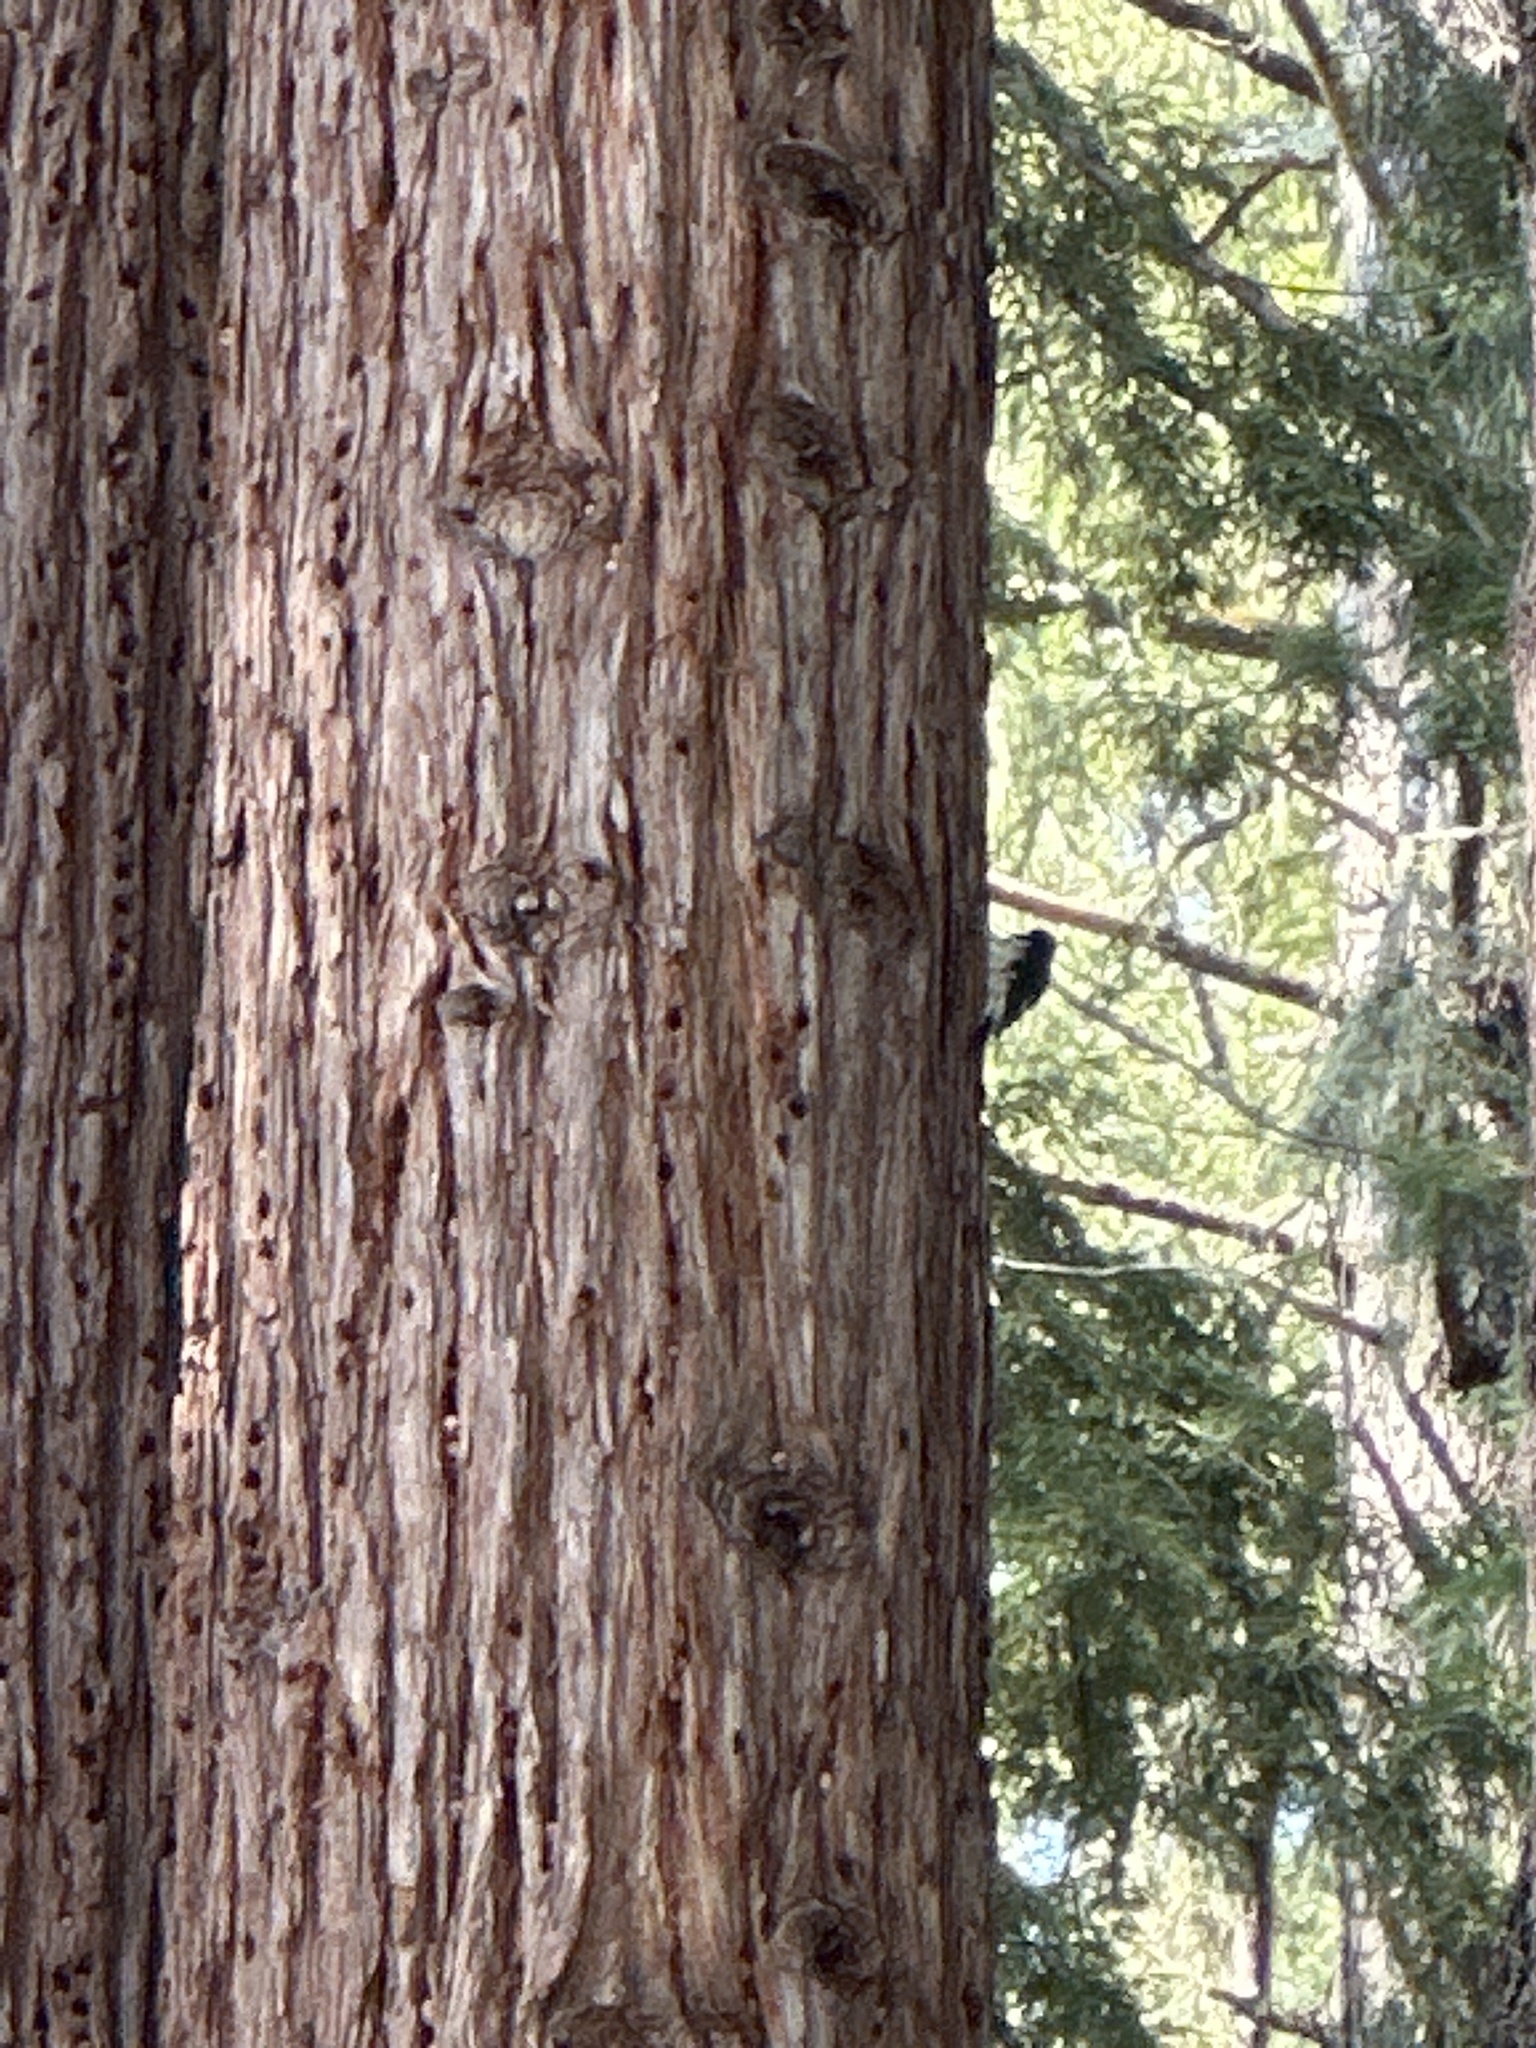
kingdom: Animalia
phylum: Chordata
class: Aves
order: Piciformes
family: Picidae
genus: Melanerpes
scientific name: Melanerpes formicivorus
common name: Acorn woodpecker
